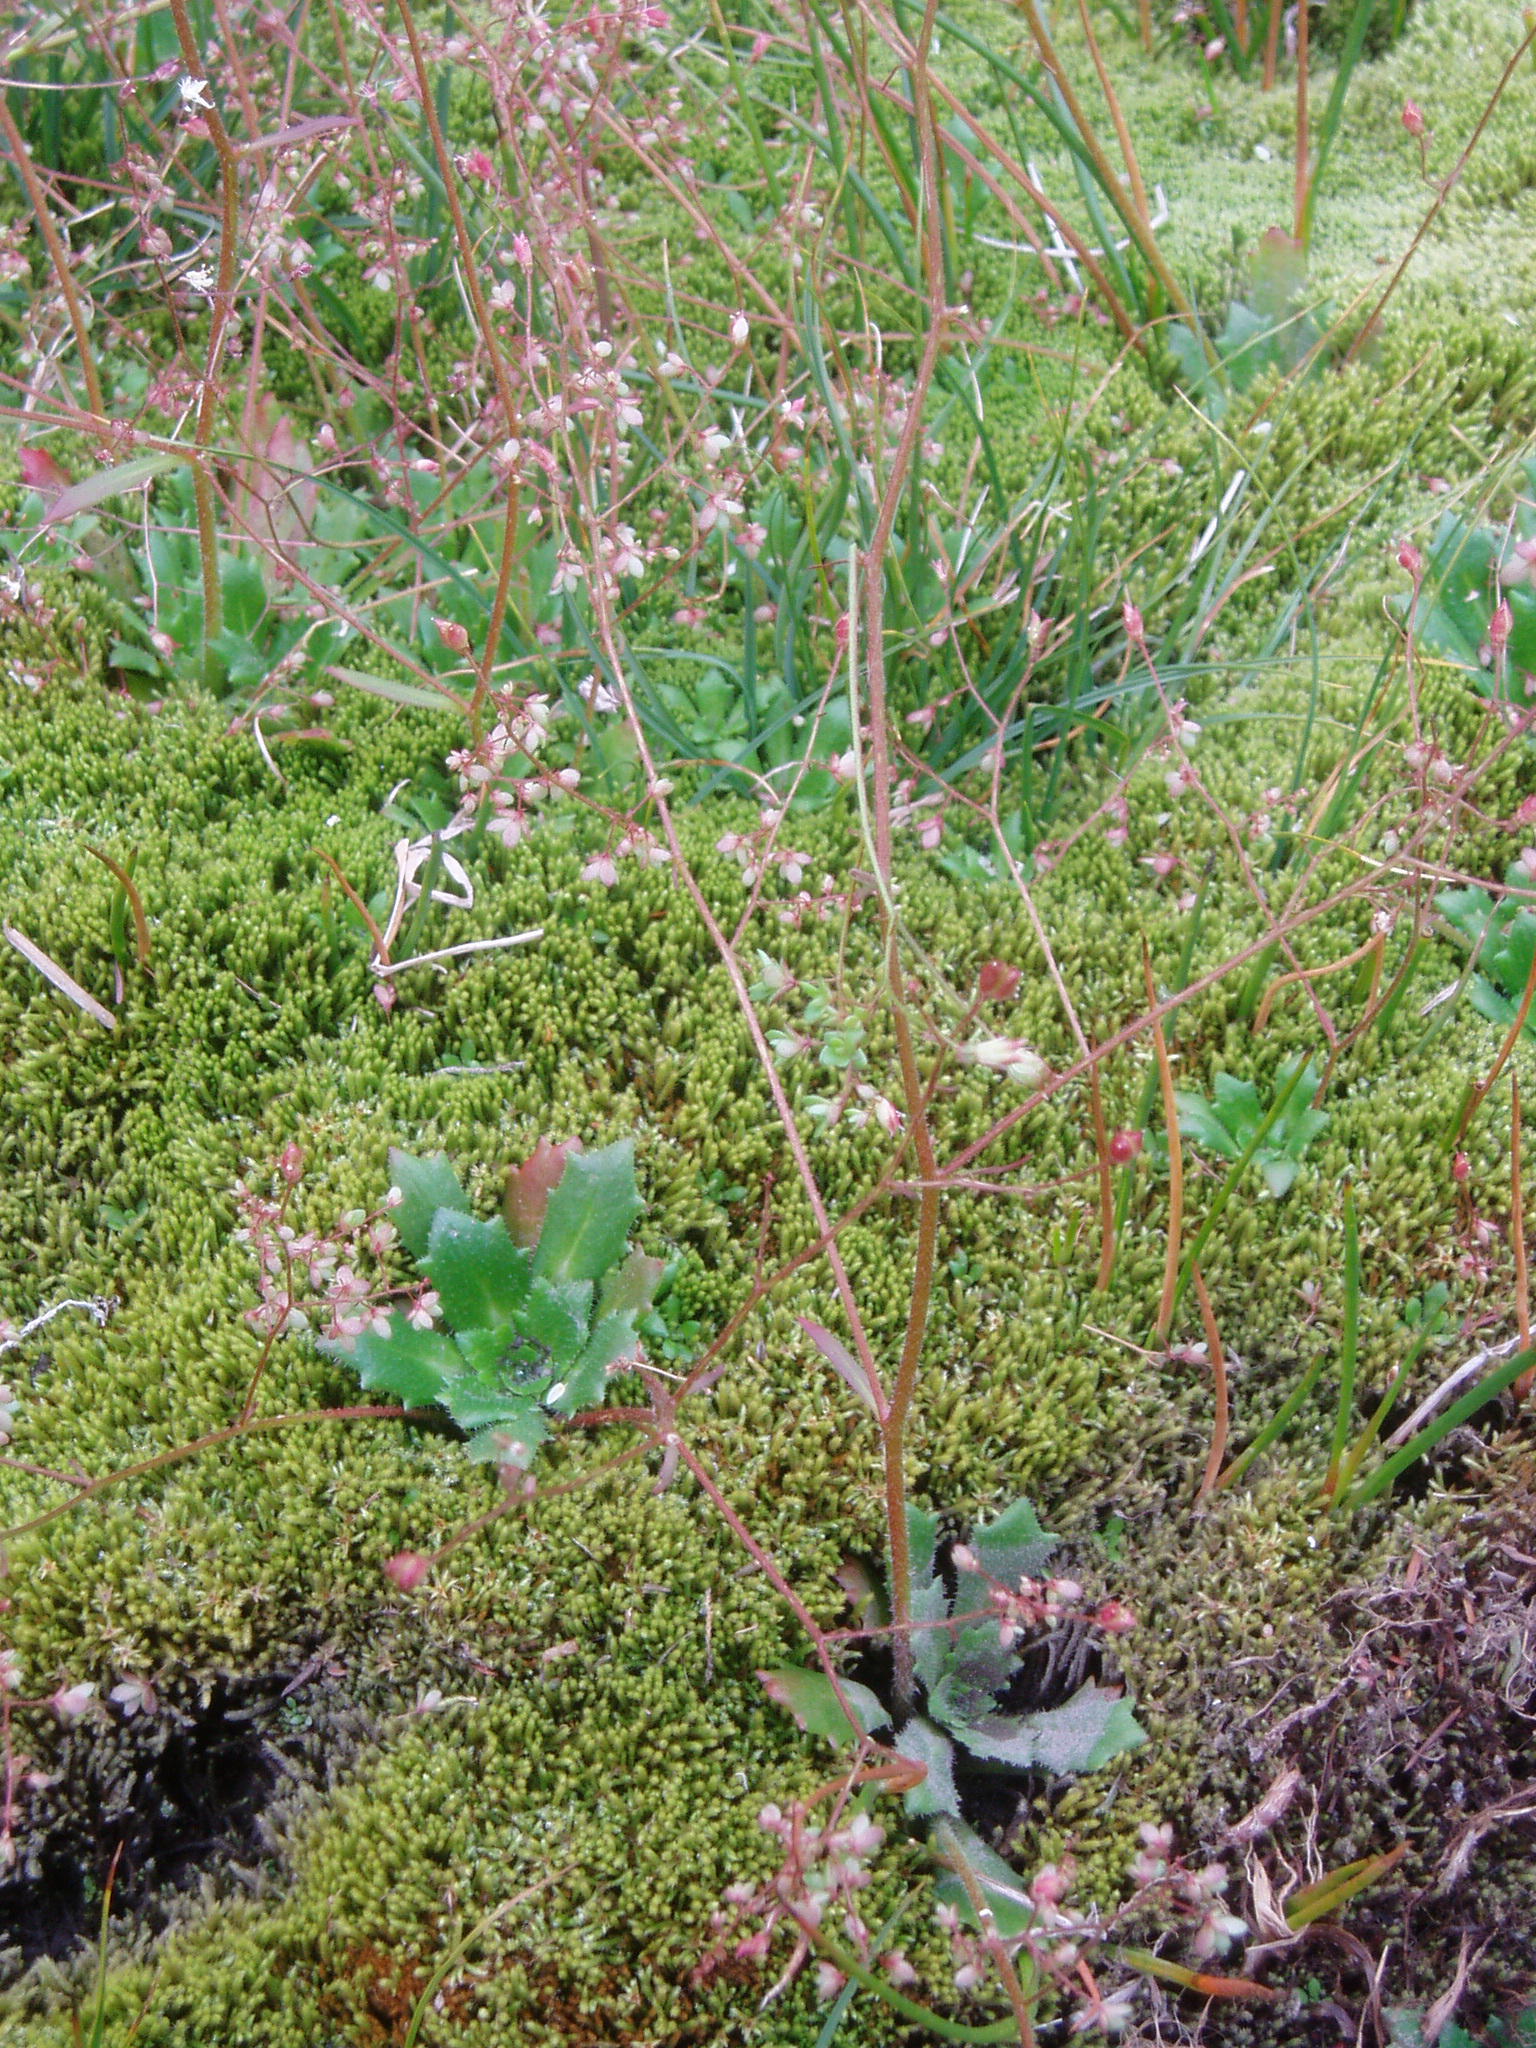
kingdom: Plantae
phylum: Tracheophyta
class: Magnoliopsida
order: Saxifragales
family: Saxifragaceae
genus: Micranthes
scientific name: Micranthes ferruginea
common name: Rusty saxifrage
